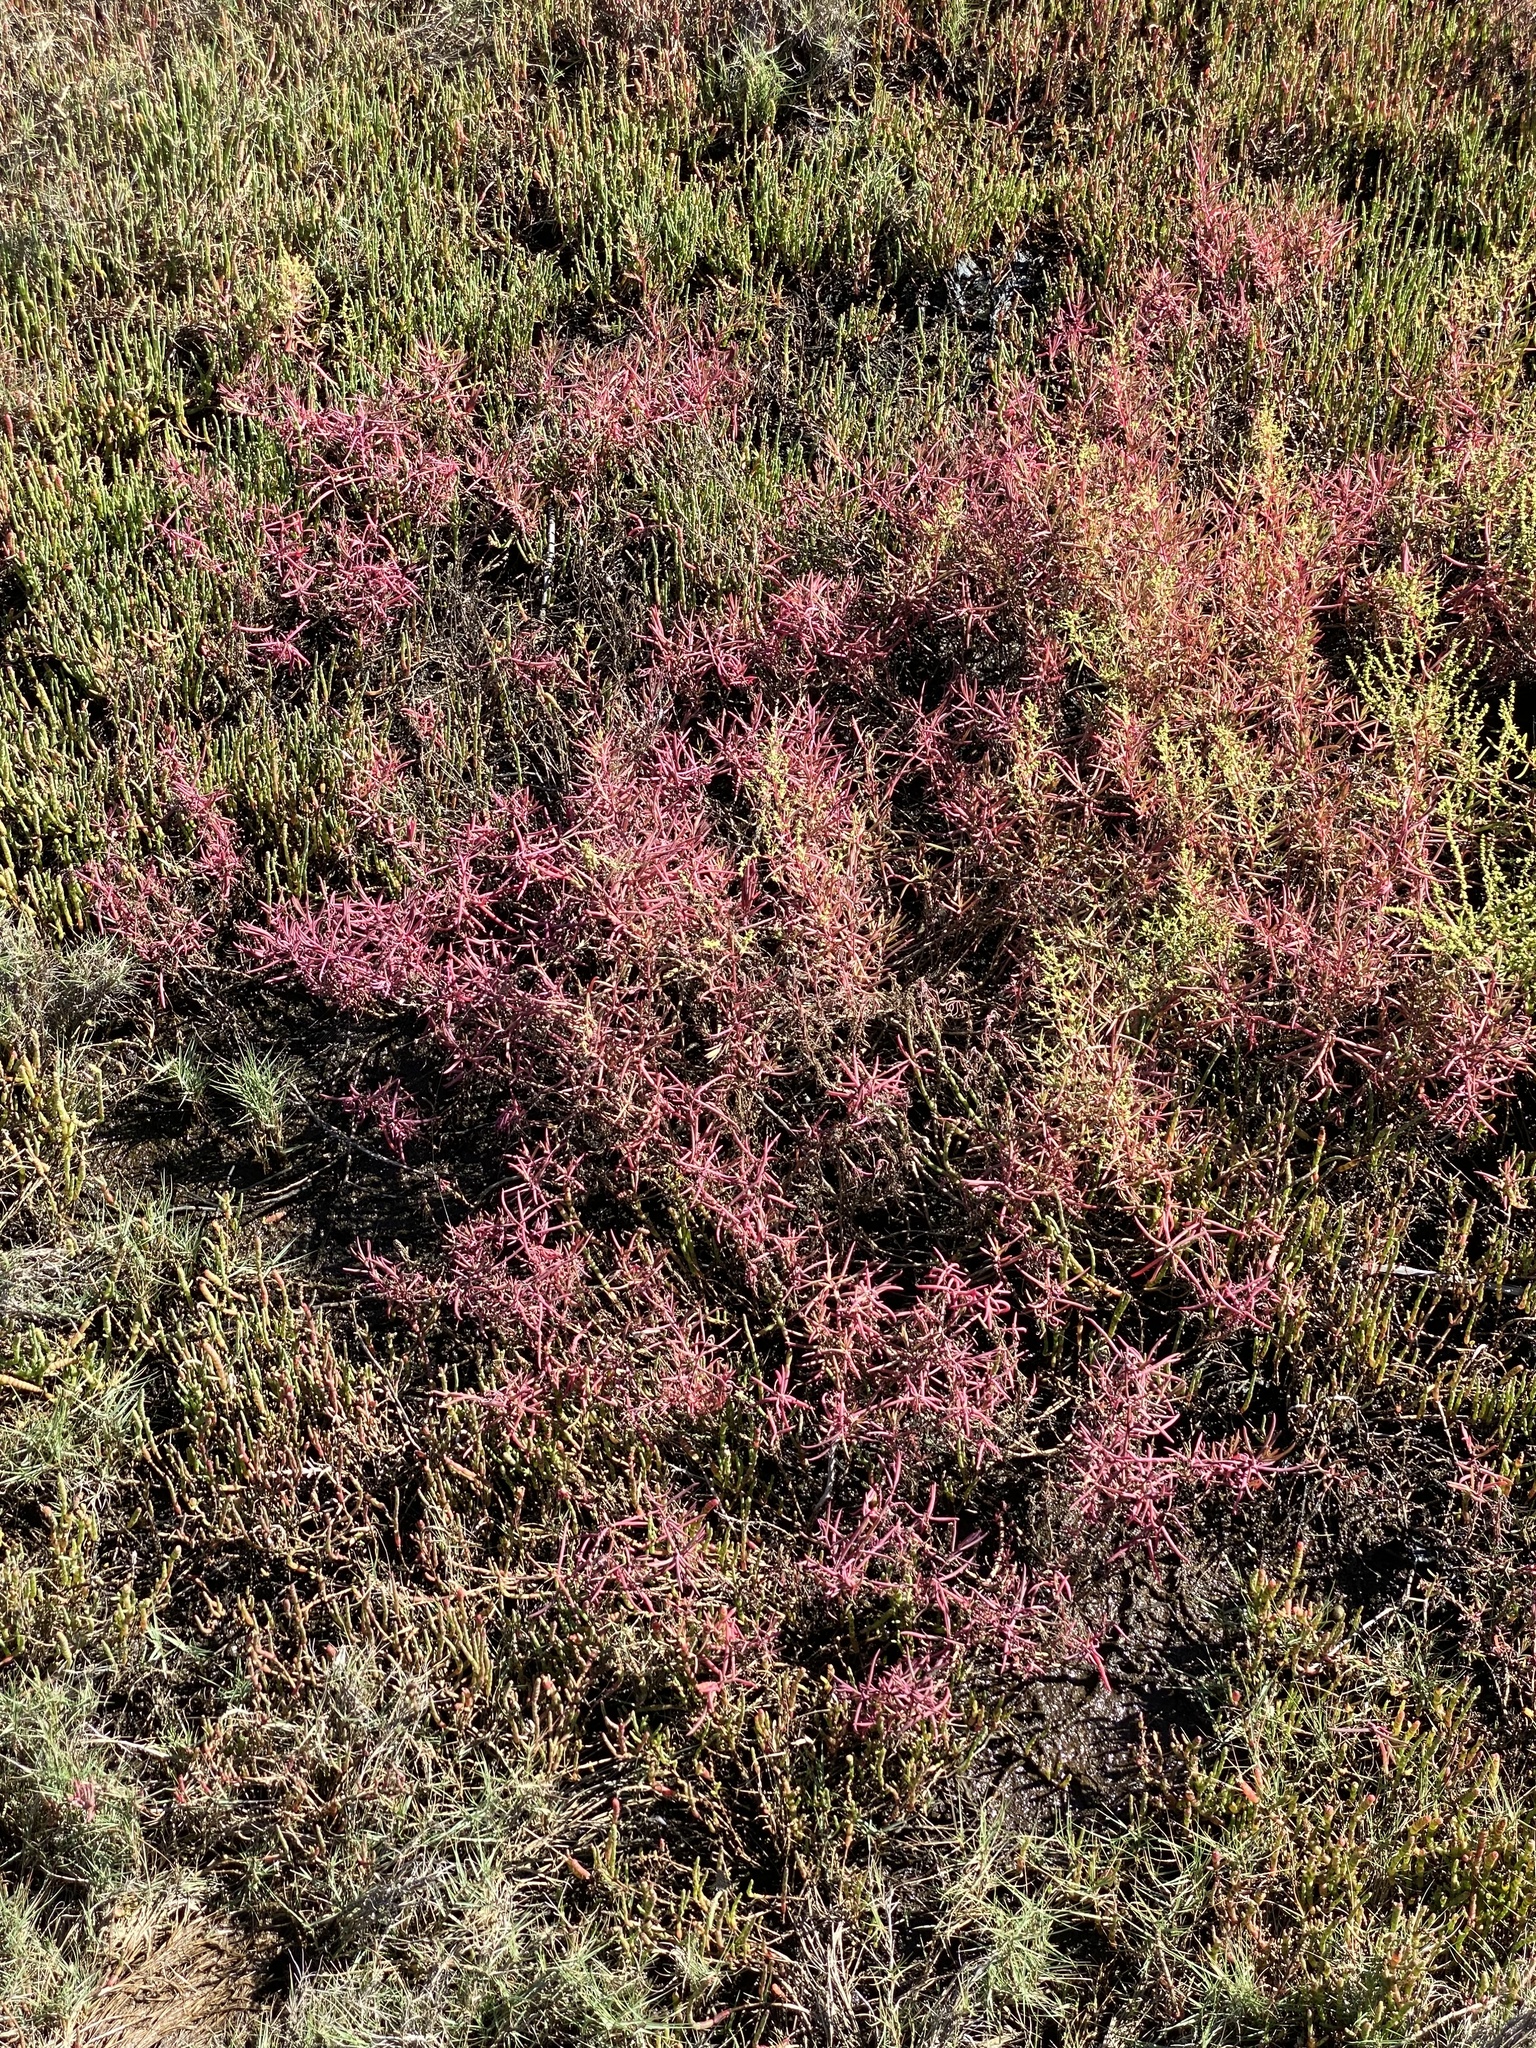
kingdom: Plantae
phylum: Tracheophyta
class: Magnoliopsida
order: Caryophyllales
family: Amaranthaceae
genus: Suaeda
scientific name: Suaeda australis
